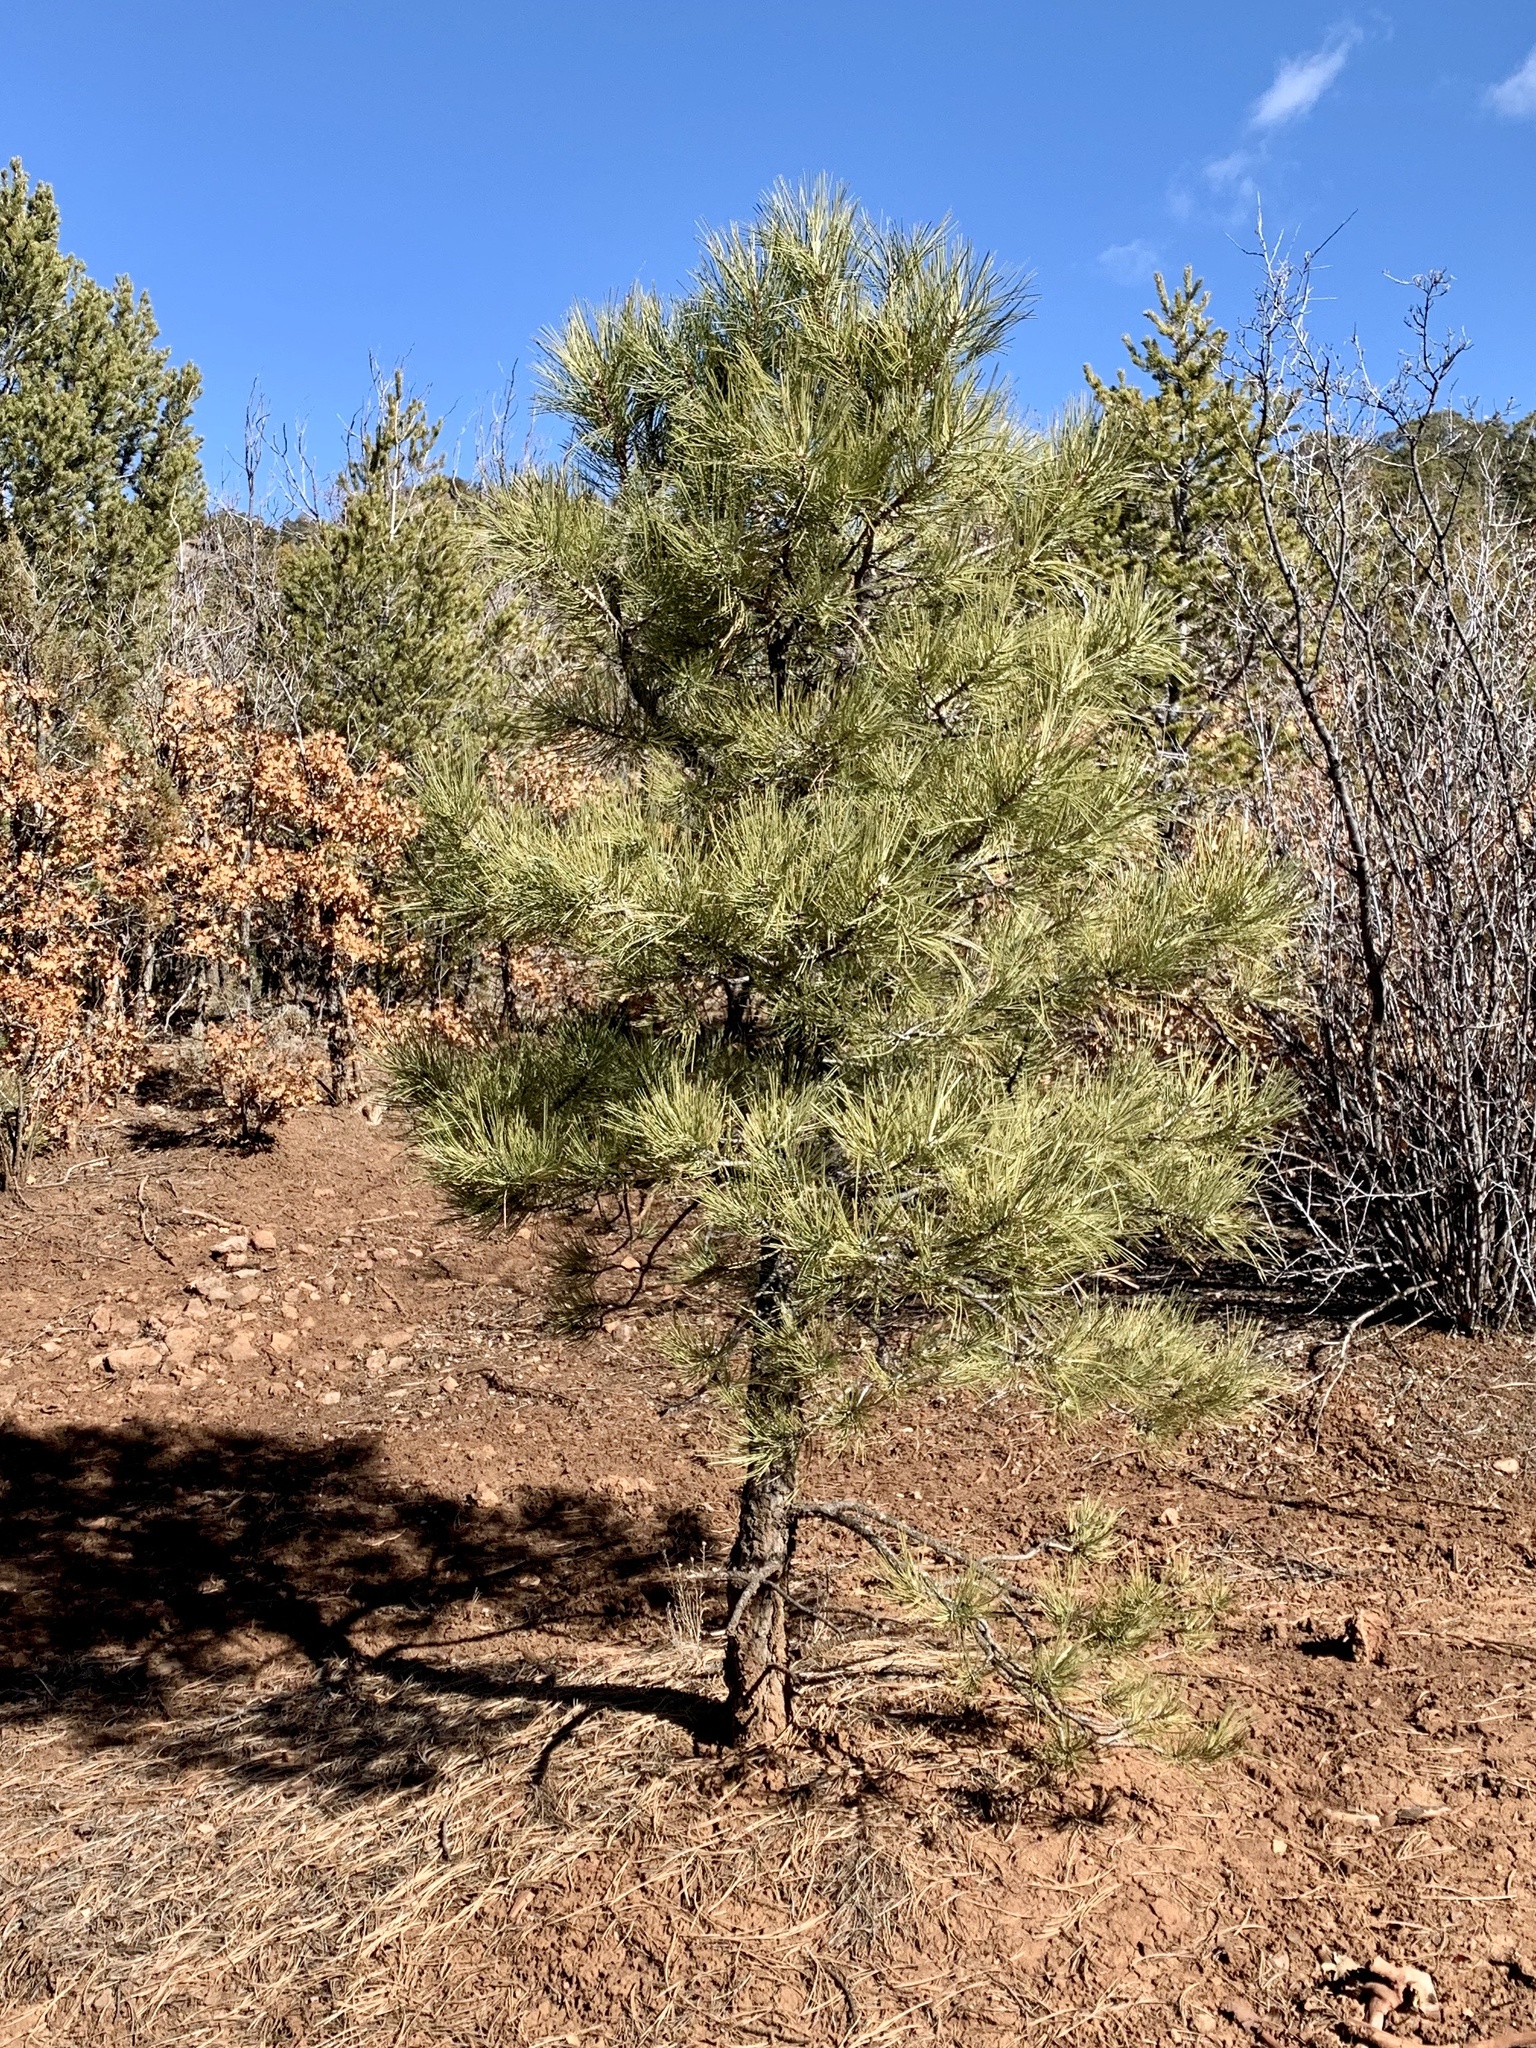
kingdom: Plantae
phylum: Tracheophyta
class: Pinopsida
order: Pinales
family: Pinaceae
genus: Pinus
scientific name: Pinus ponderosa
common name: Western yellow-pine
